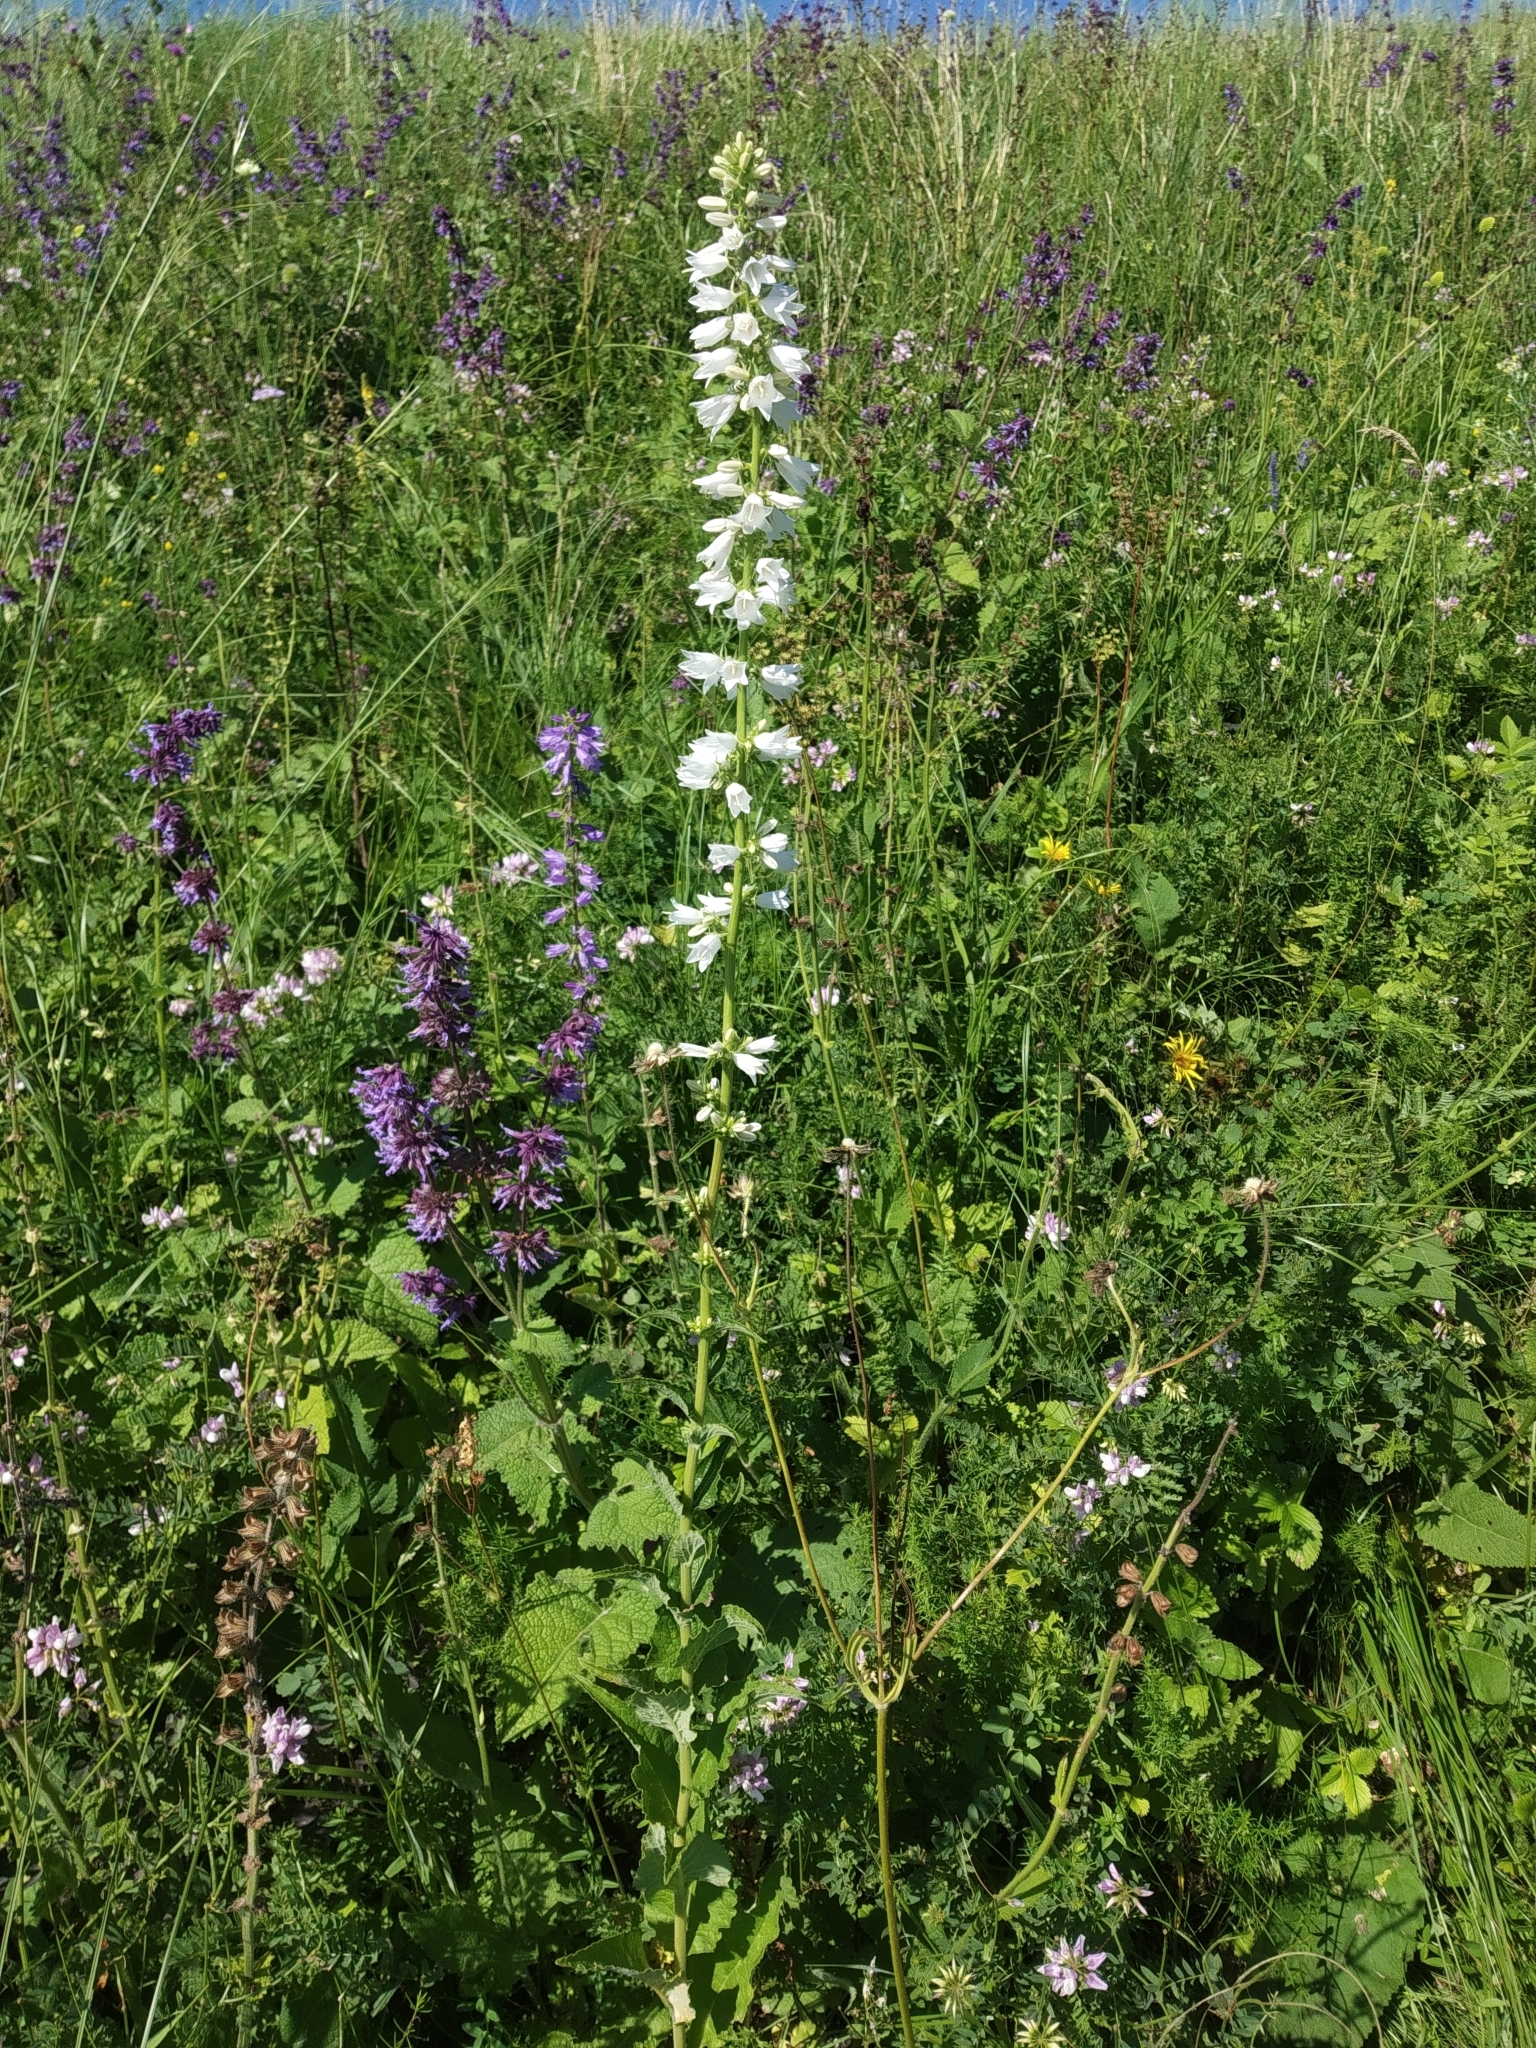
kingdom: Plantae
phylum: Tracheophyta
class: Magnoliopsida
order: Asterales
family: Campanulaceae
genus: Campanula
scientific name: Campanula bononiensis
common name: Pale bellflower
